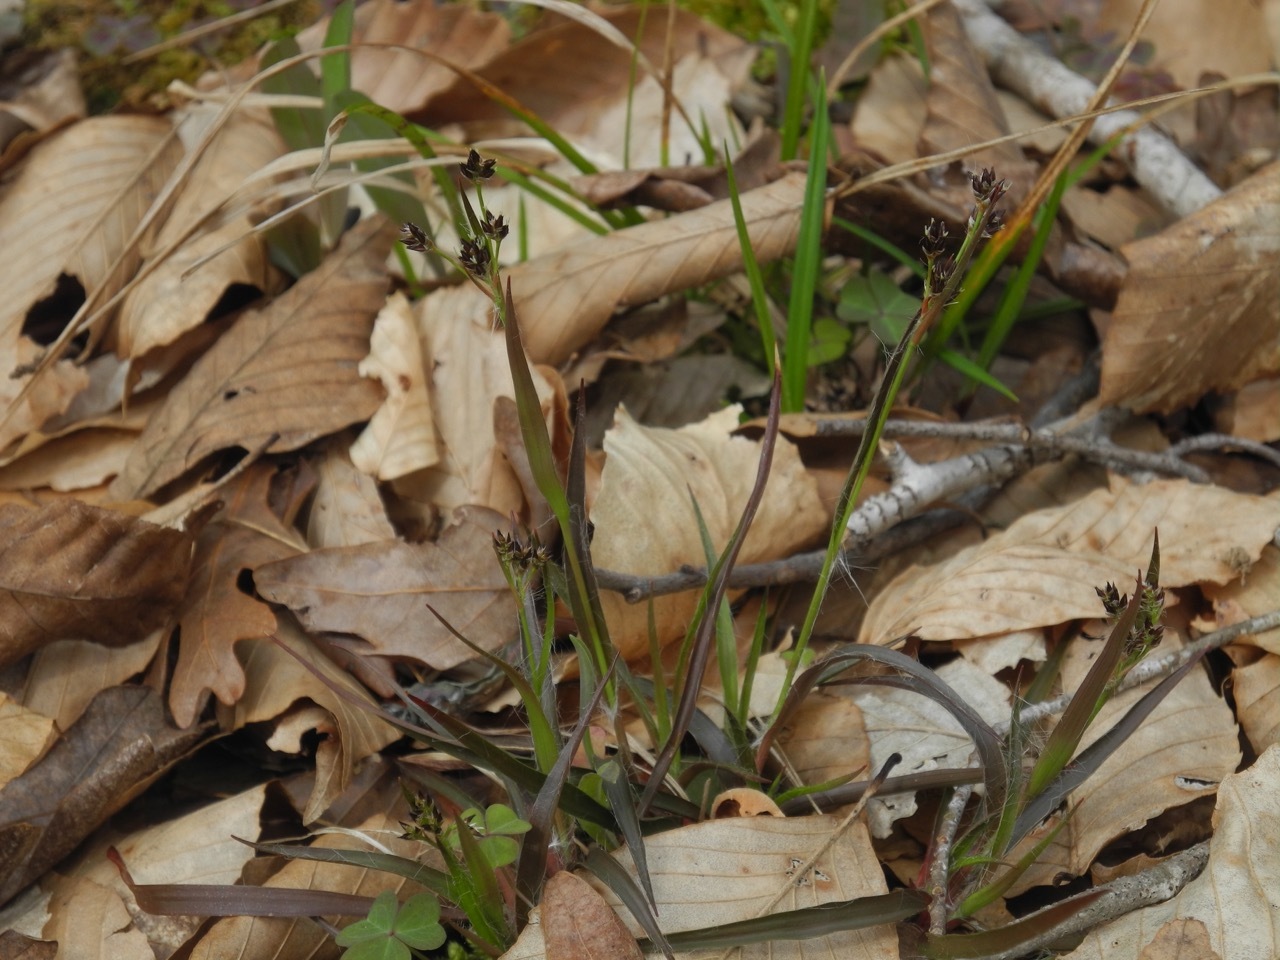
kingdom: Plantae
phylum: Tracheophyta
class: Liliopsida
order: Poales
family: Juncaceae
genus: Luzula
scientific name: Luzula echinata
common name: Hedgehog woodrush
